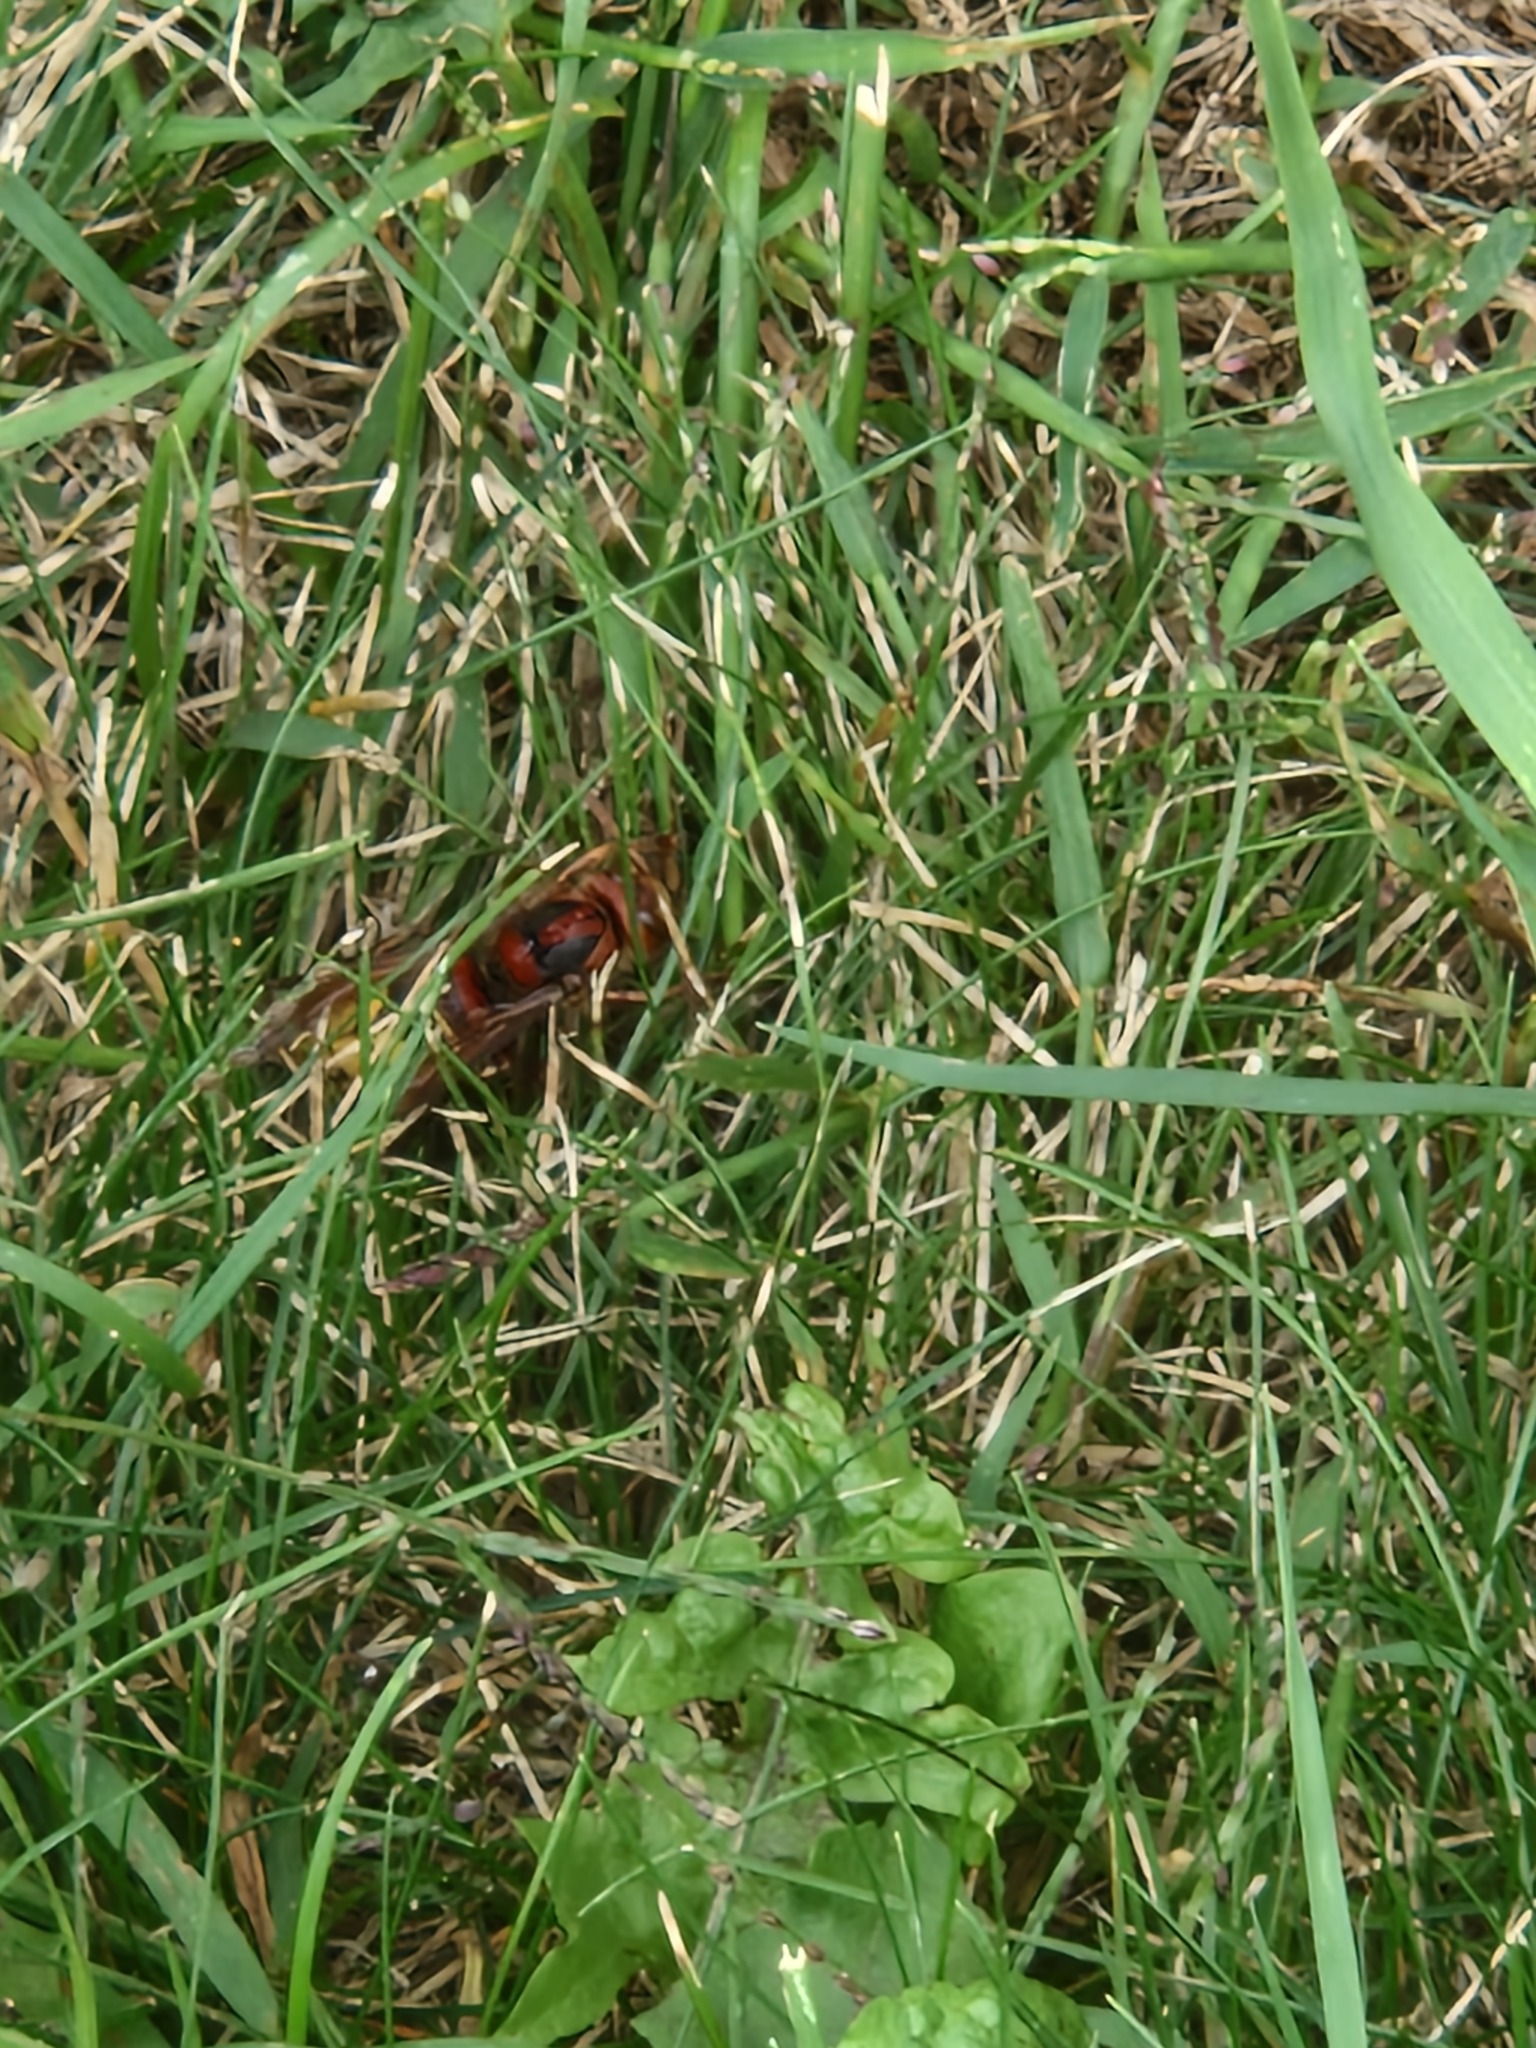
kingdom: Animalia
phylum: Arthropoda
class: Insecta
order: Hymenoptera
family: Vespidae
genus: Vespa
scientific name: Vespa crabro
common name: Hornet
